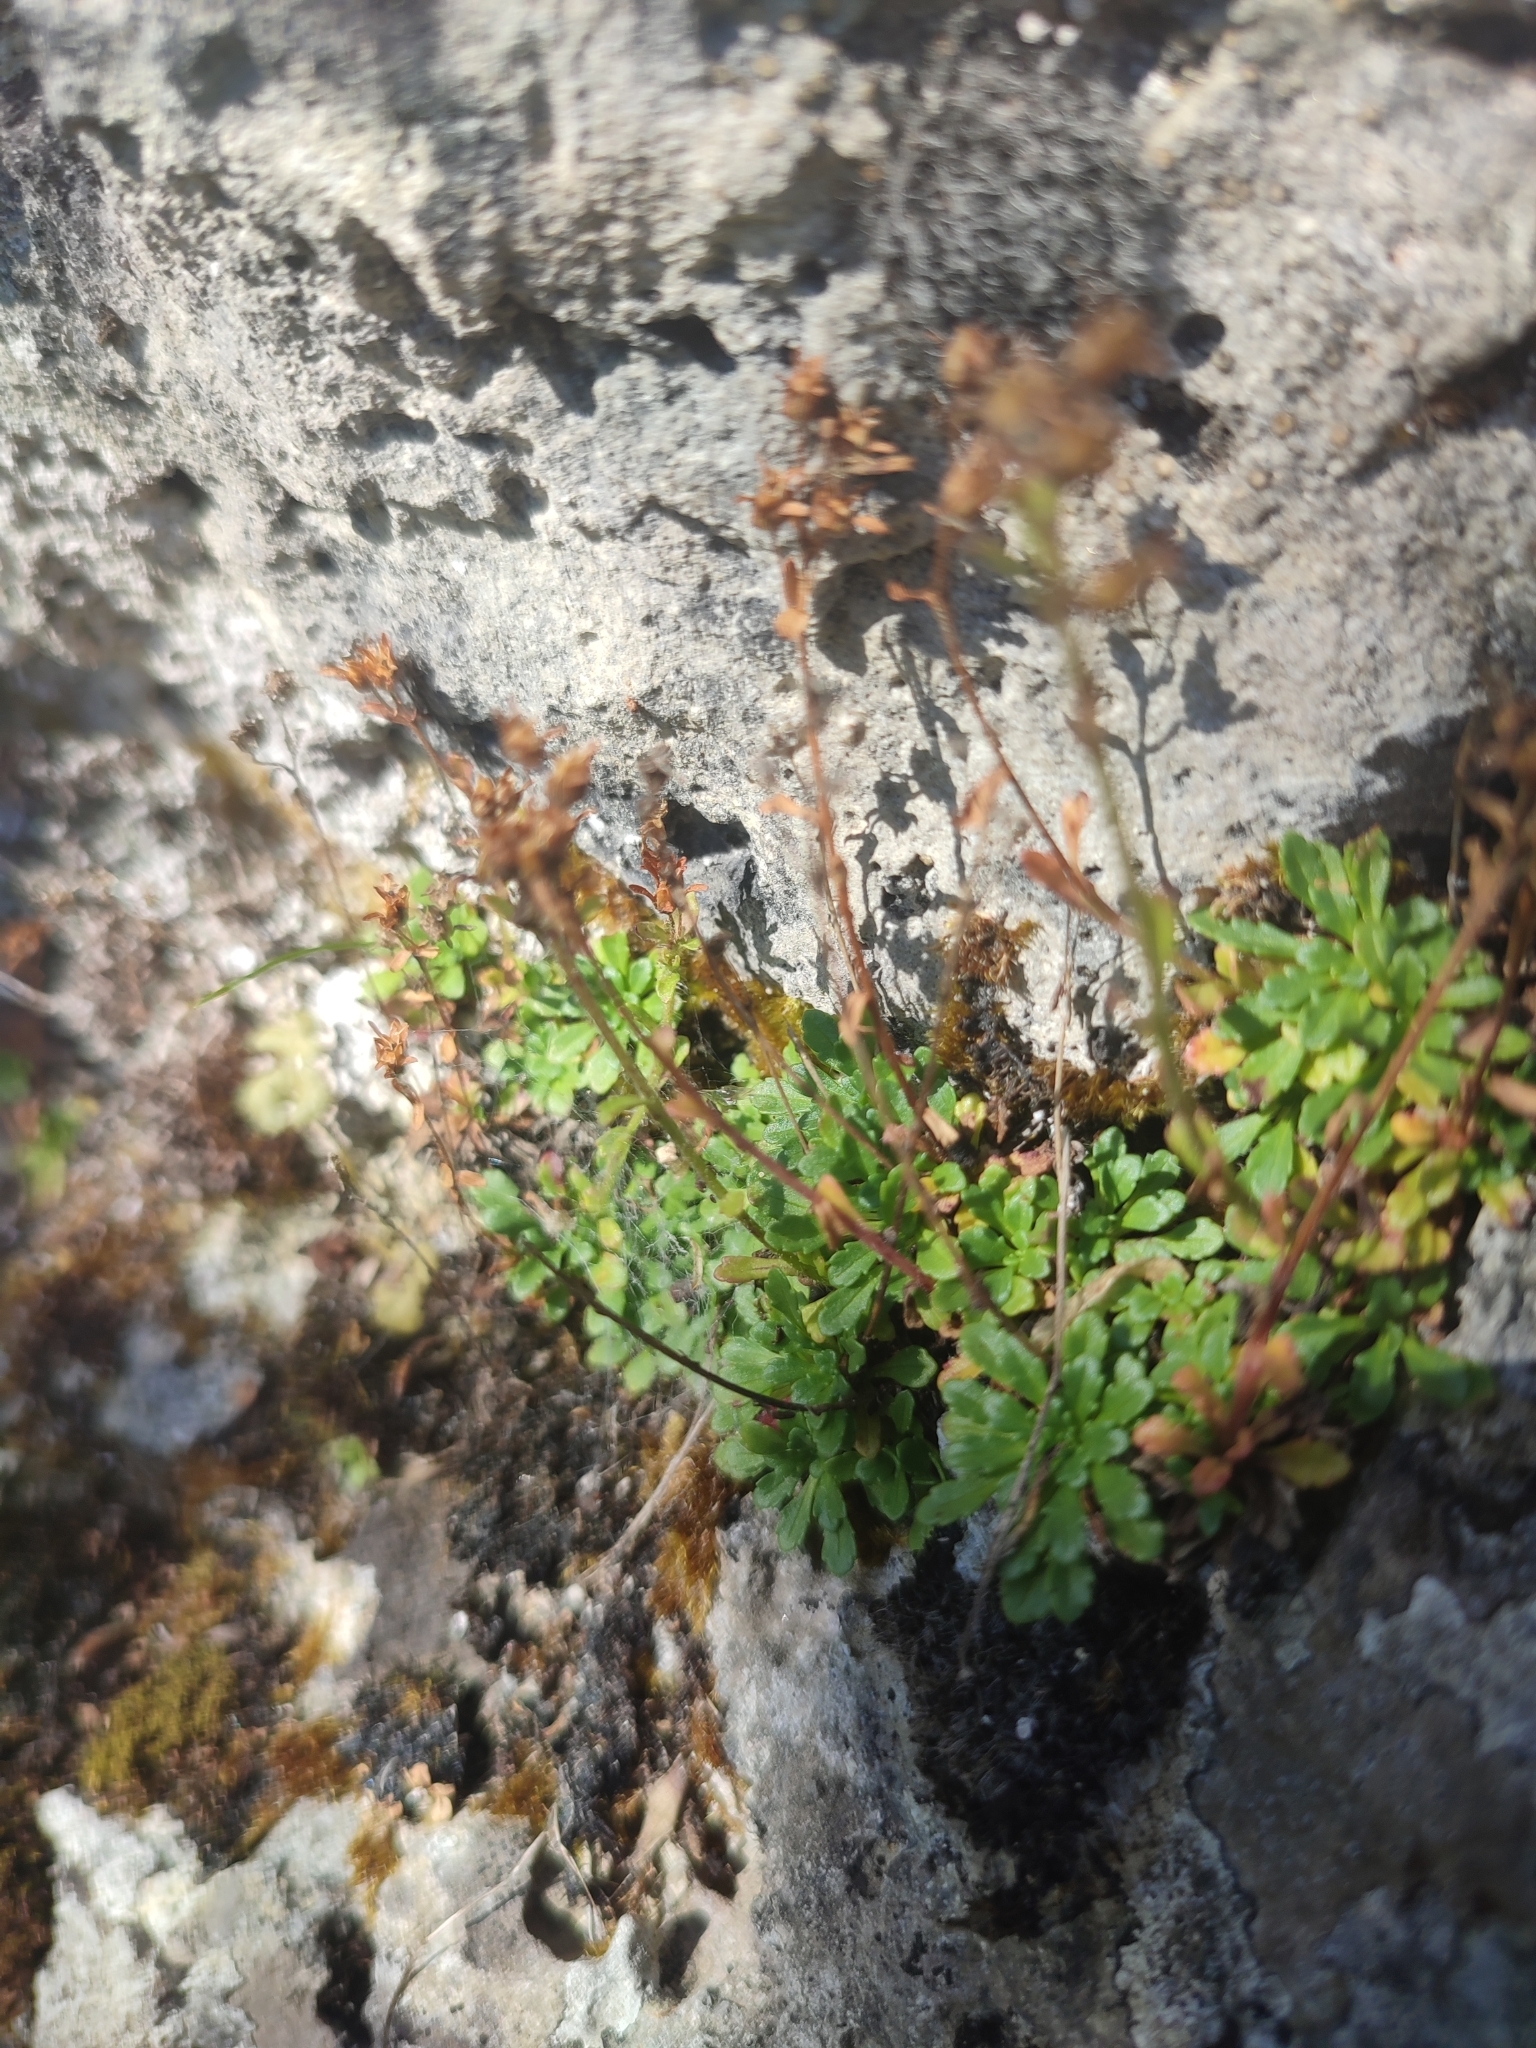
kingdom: Plantae
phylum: Tracheophyta
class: Magnoliopsida
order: Lamiales
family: Plantaginaceae
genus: Erinus
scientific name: Erinus alpinus
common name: Fairy foxglove
